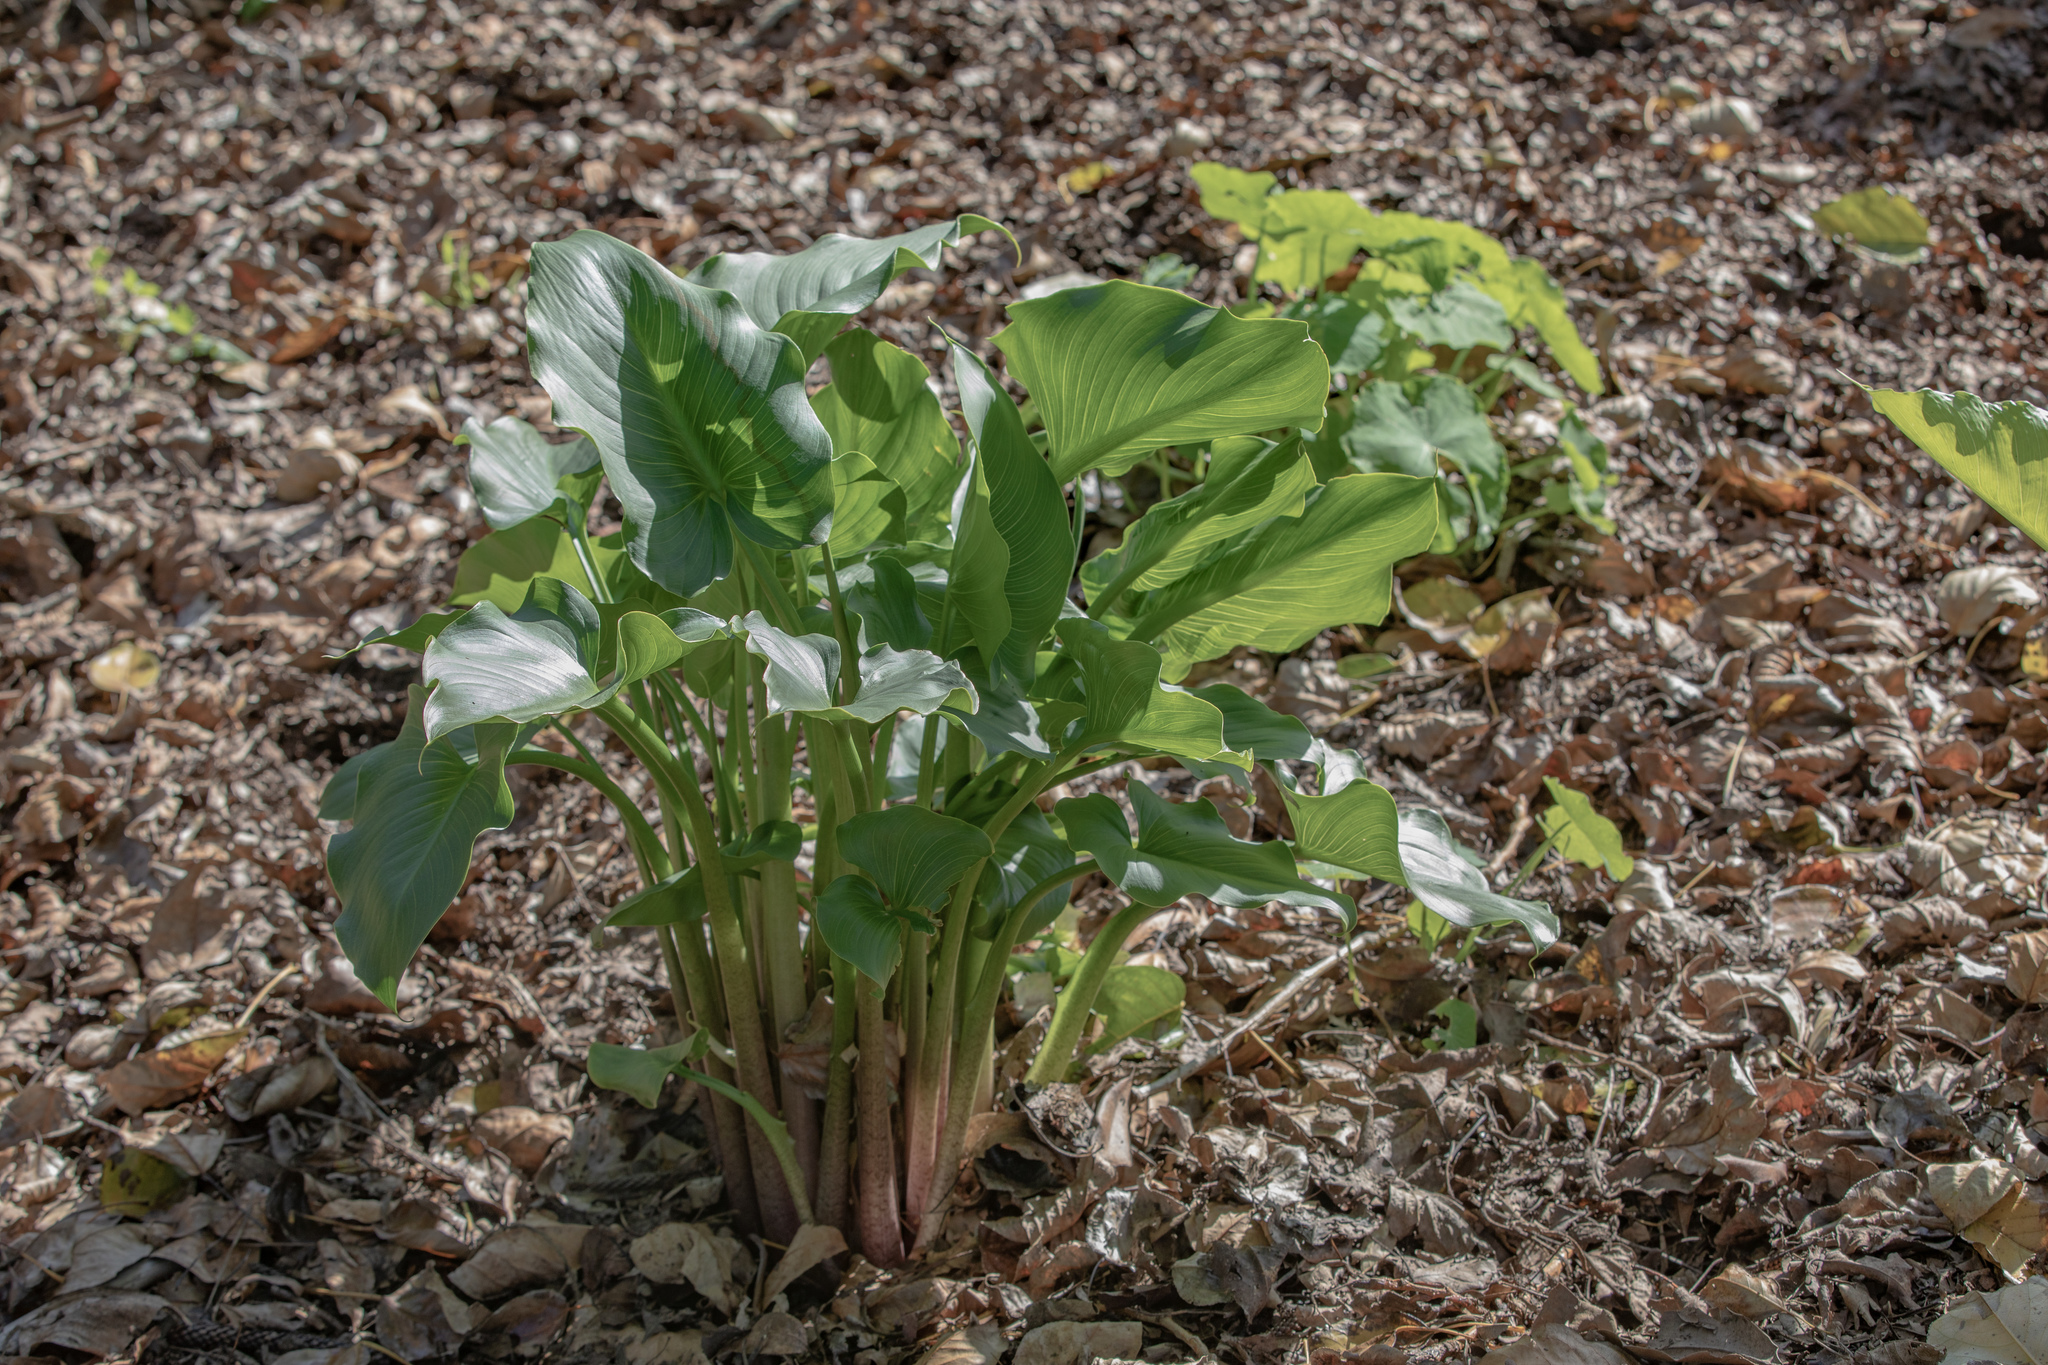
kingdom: Plantae
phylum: Tracheophyta
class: Liliopsida
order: Alismatales
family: Araceae
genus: Arum
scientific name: Arum
